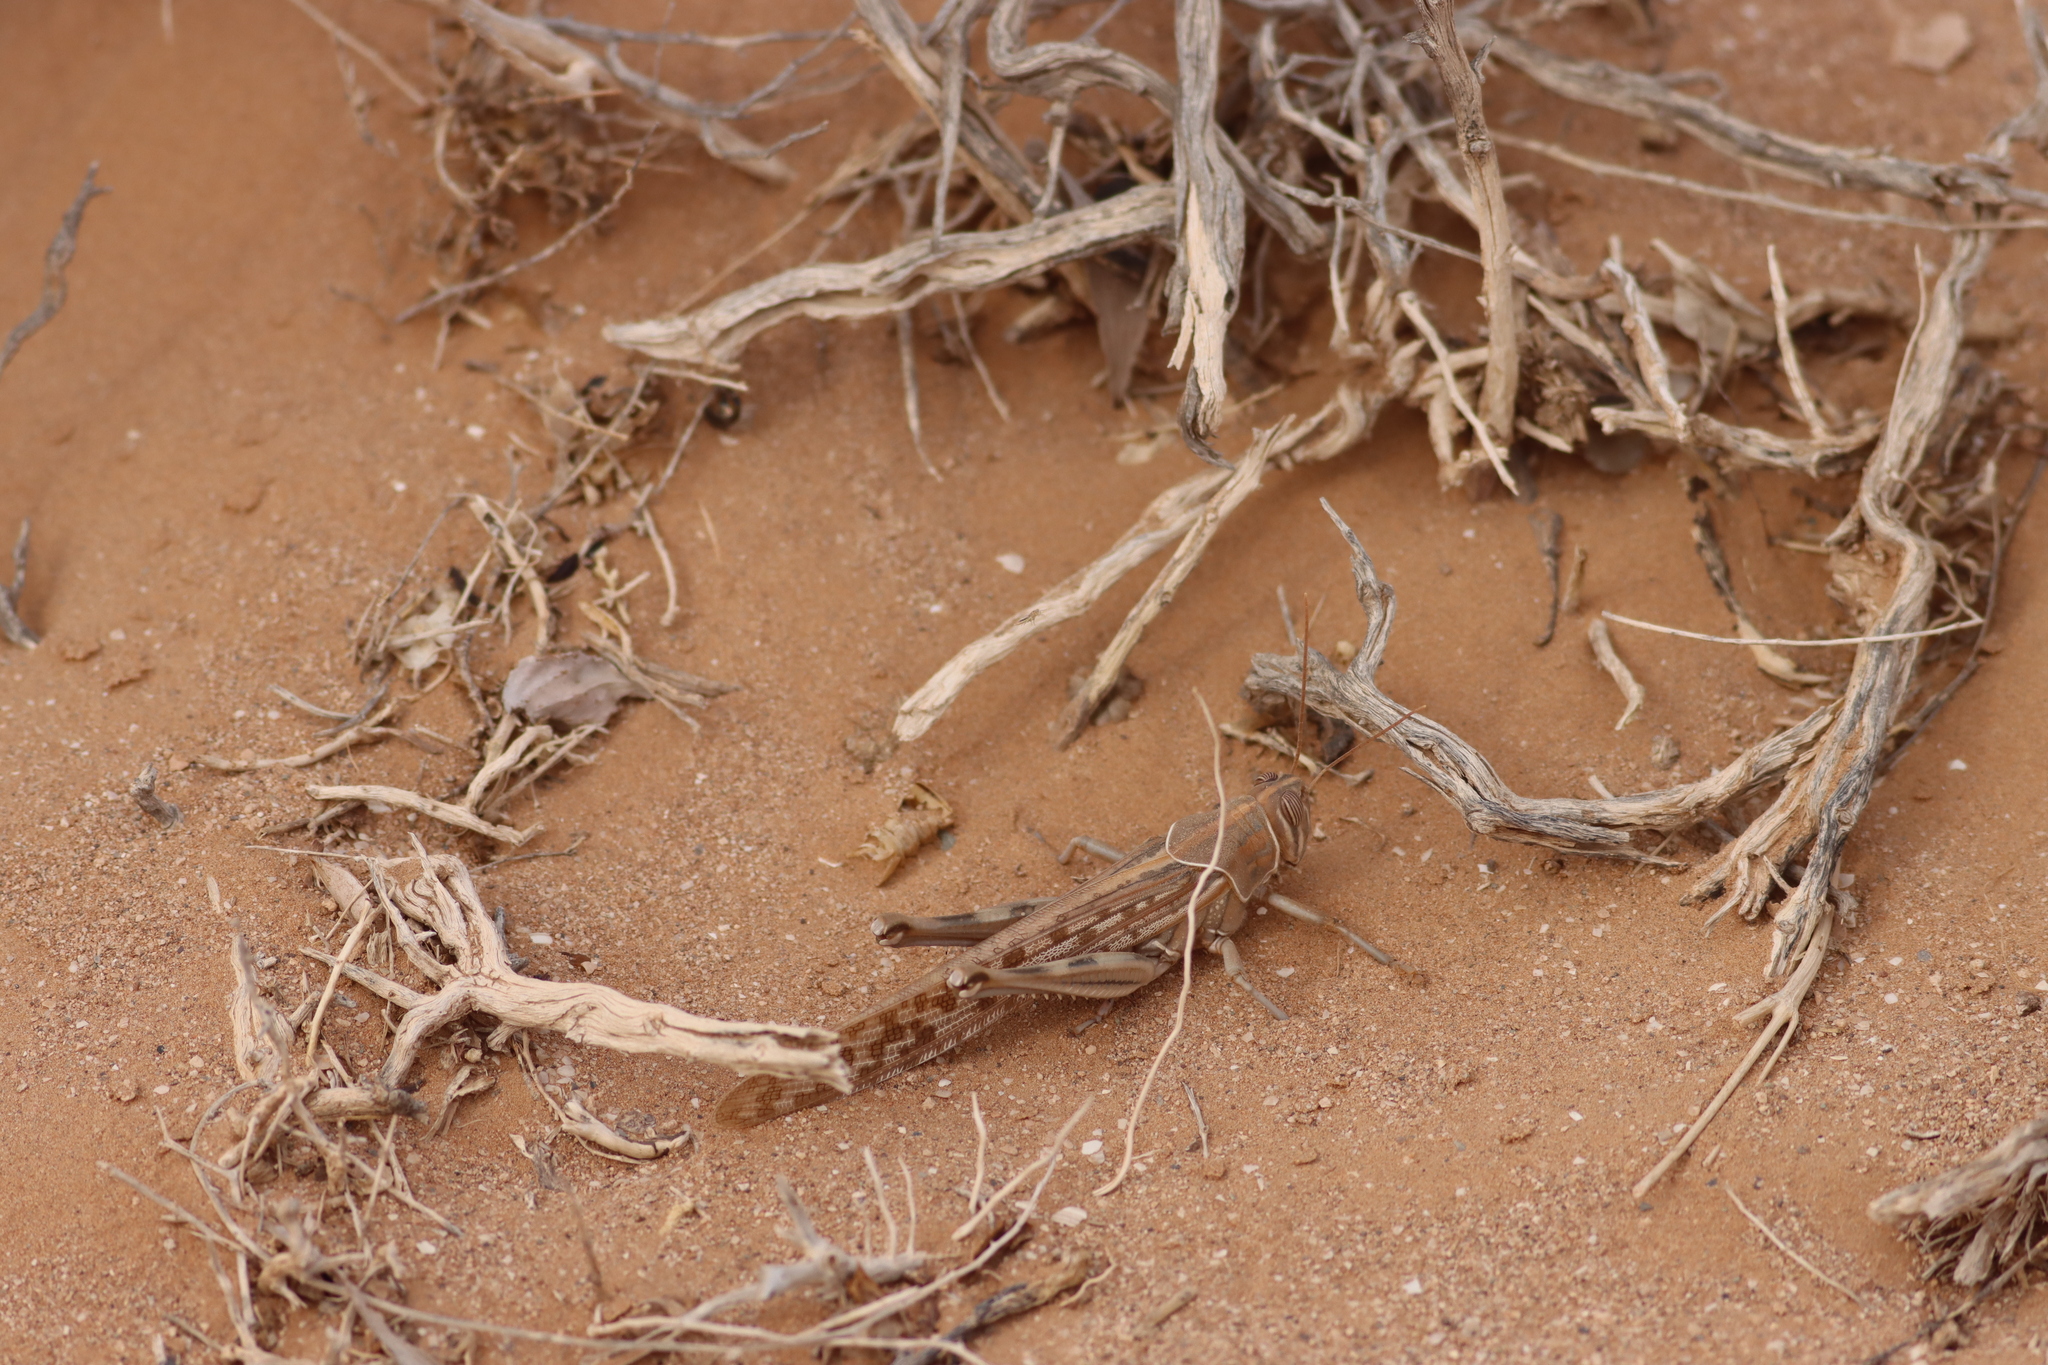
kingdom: Animalia
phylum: Arthropoda
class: Insecta
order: Orthoptera
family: Acrididae
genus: Schistocerca
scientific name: Schistocerca gregaria
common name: Desert locust
